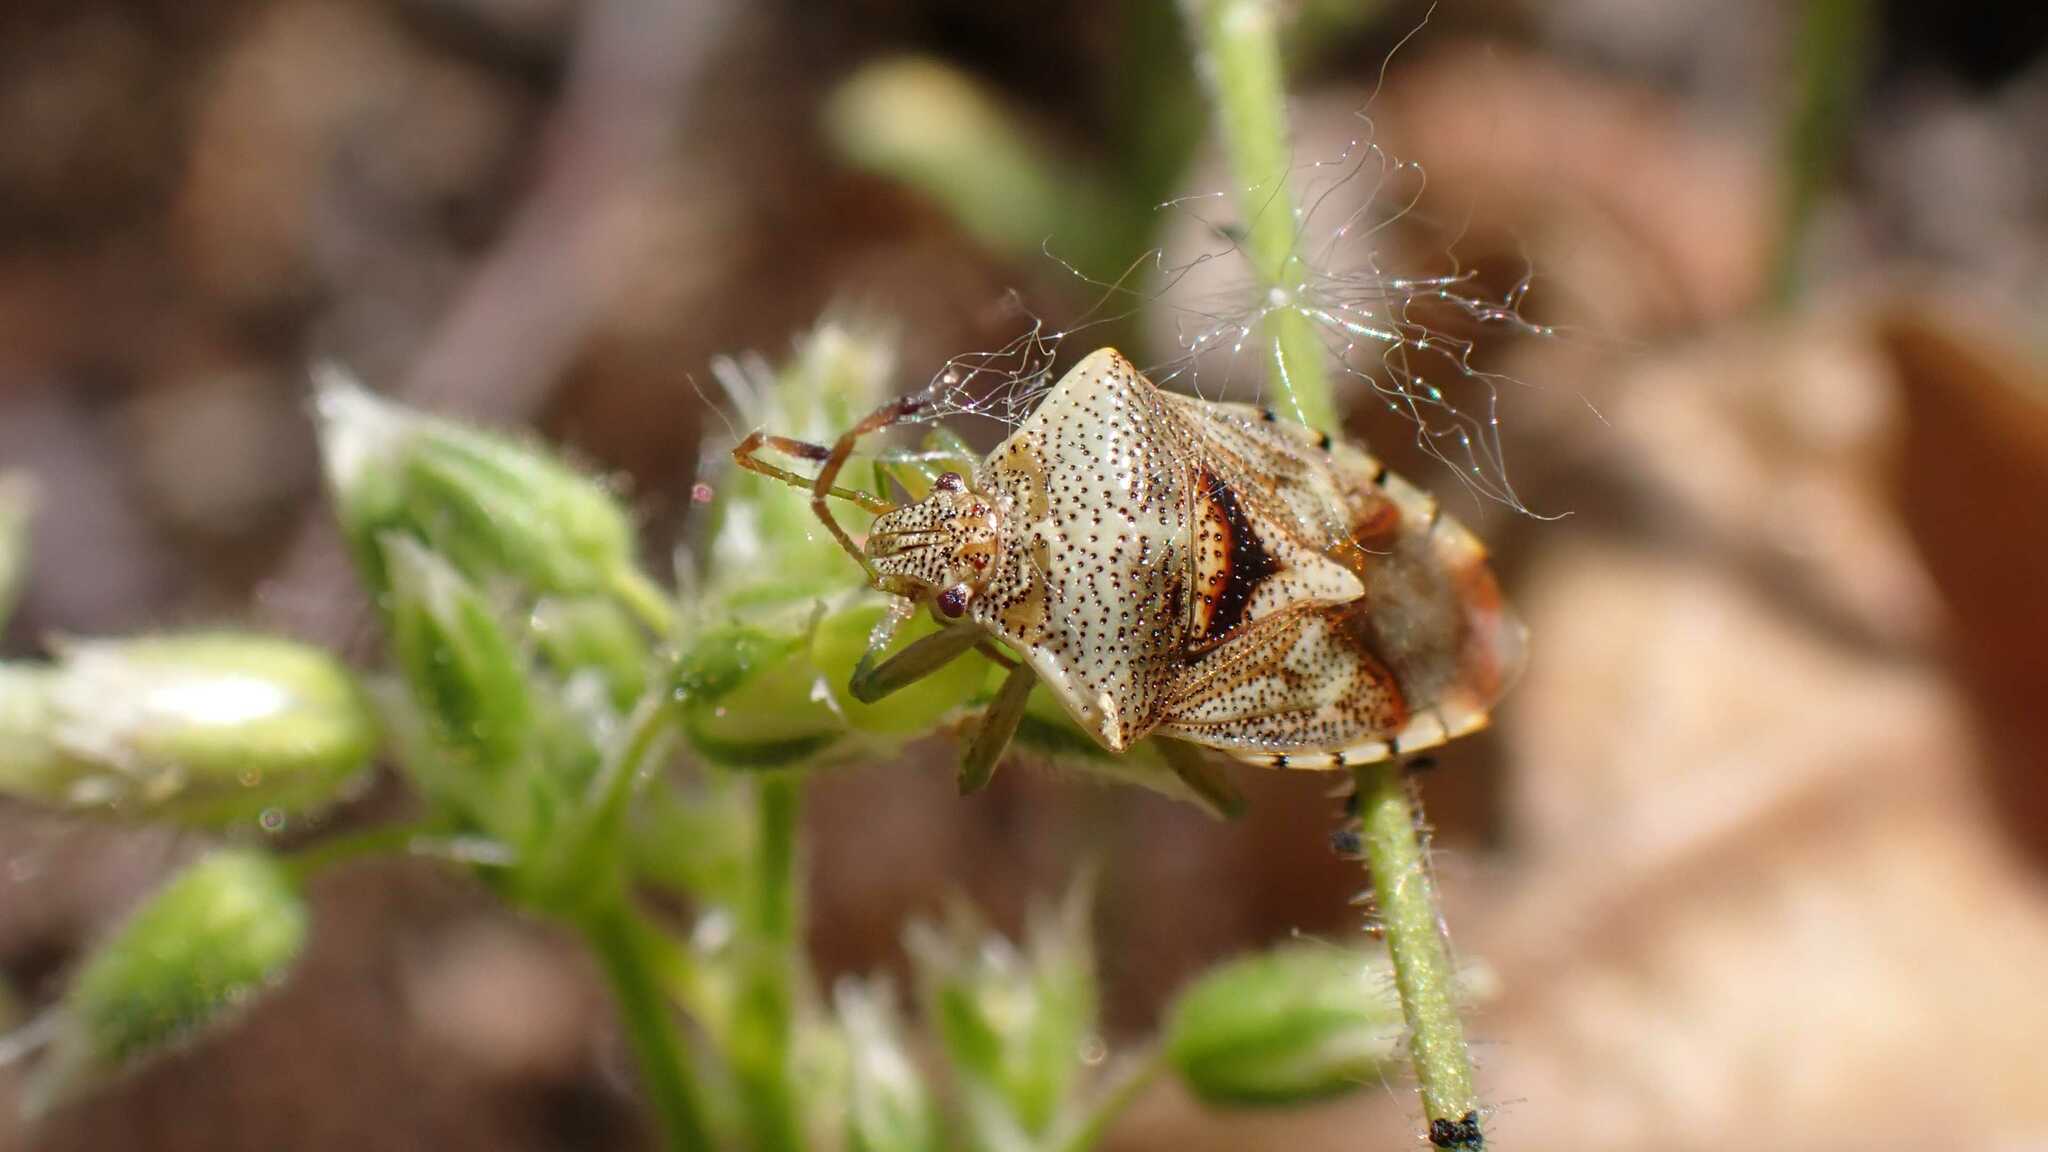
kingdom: Animalia
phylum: Arthropoda
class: Insecta
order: Hemiptera
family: Acanthosomatidae
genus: Elasmucha
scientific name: Elasmucha grisea
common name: Parent bug
